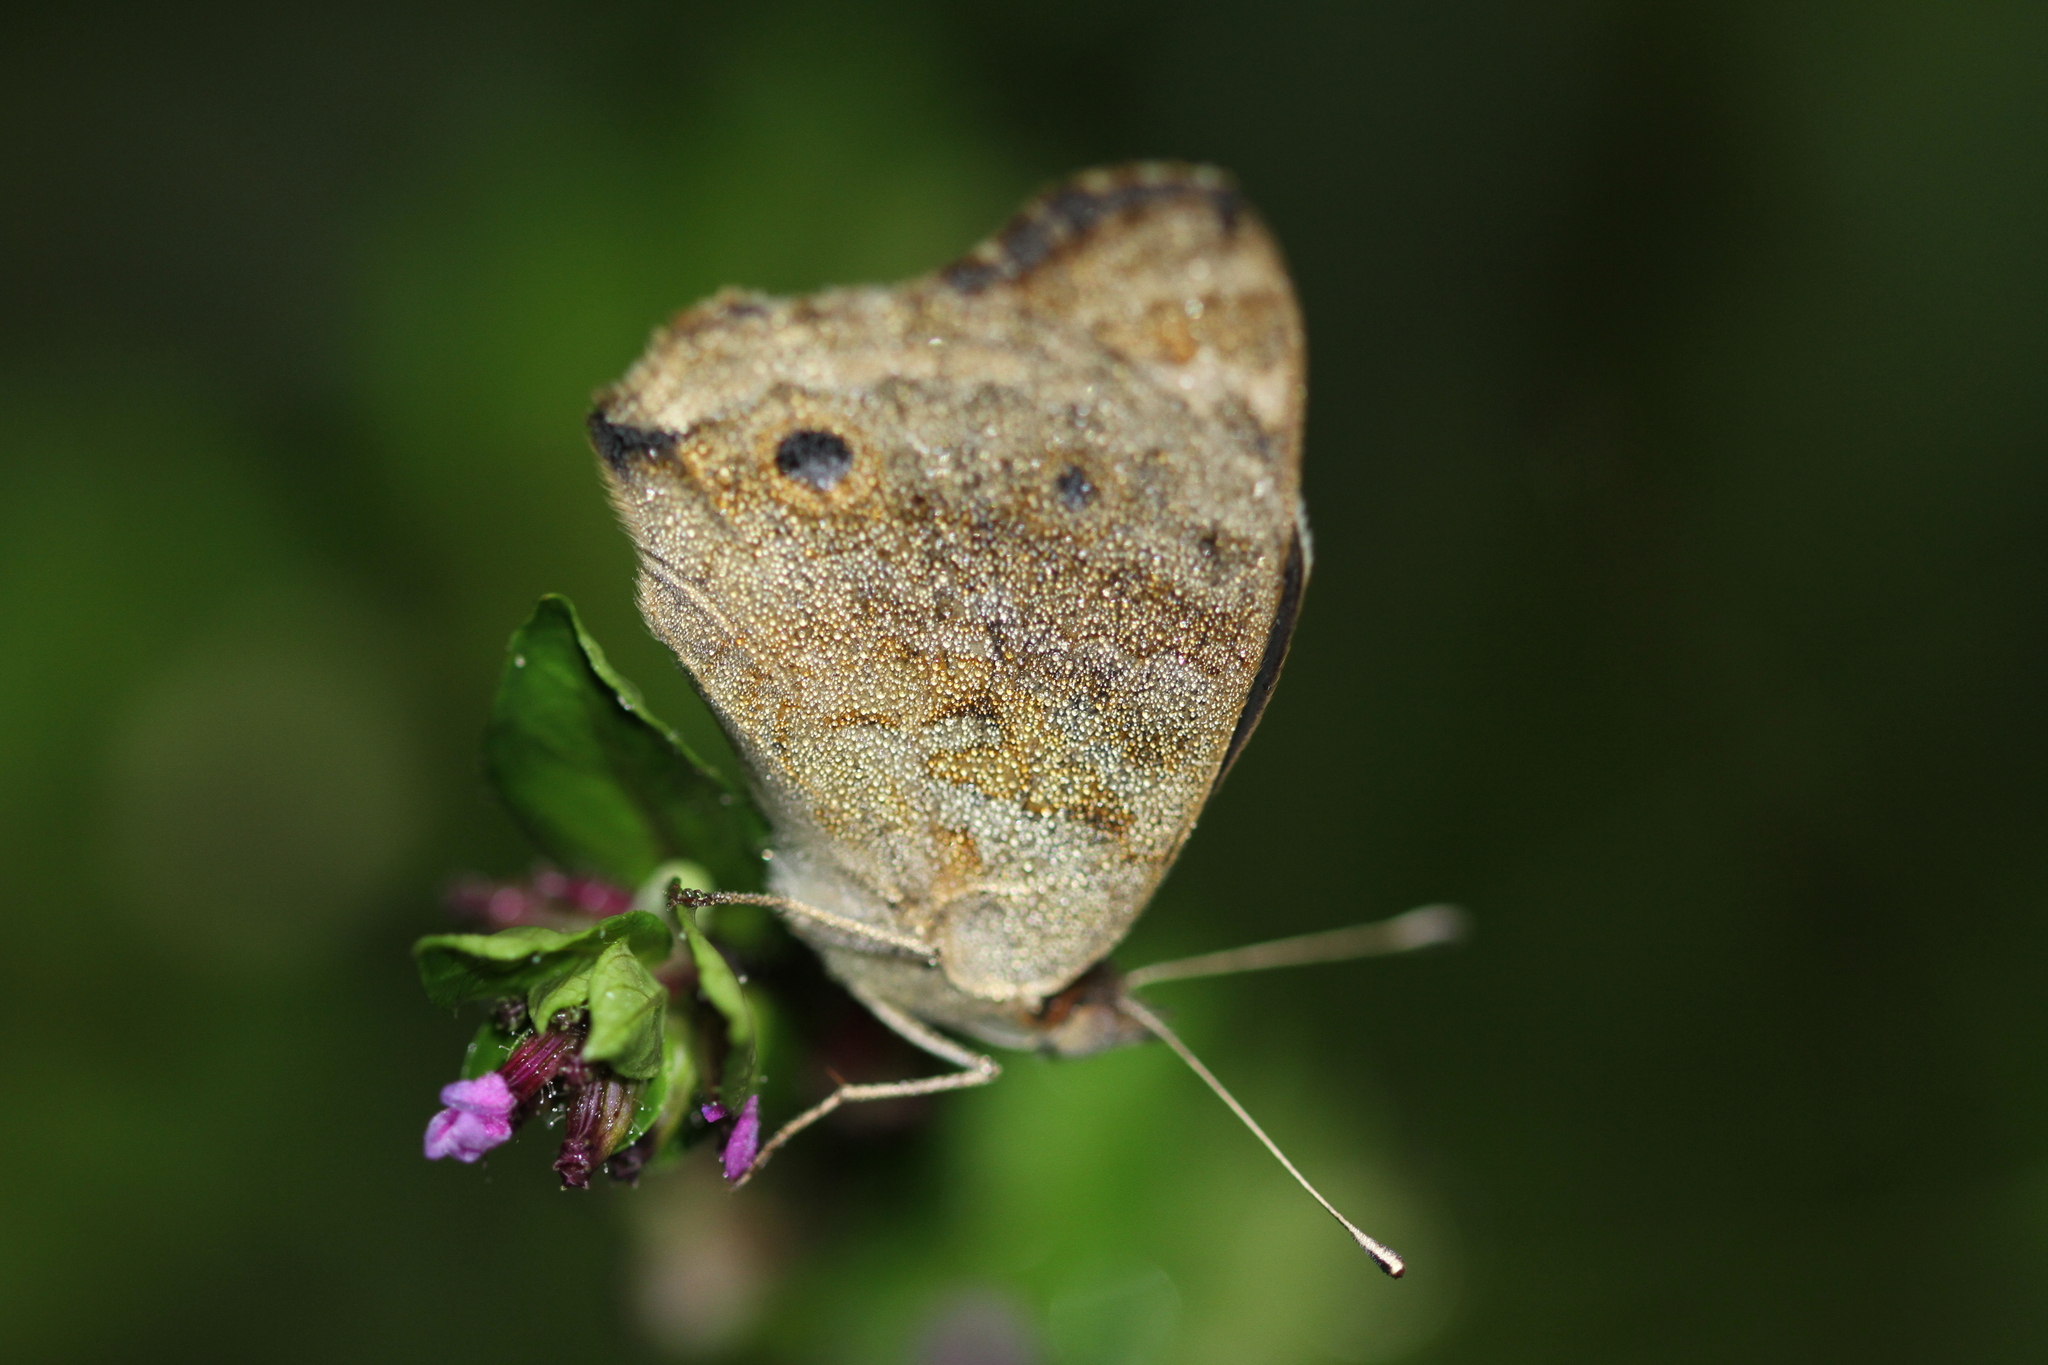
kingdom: Animalia
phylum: Arthropoda
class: Insecta
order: Lepidoptera
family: Nymphalidae
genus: Junonia
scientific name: Junonia orithya
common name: Blue pansy
